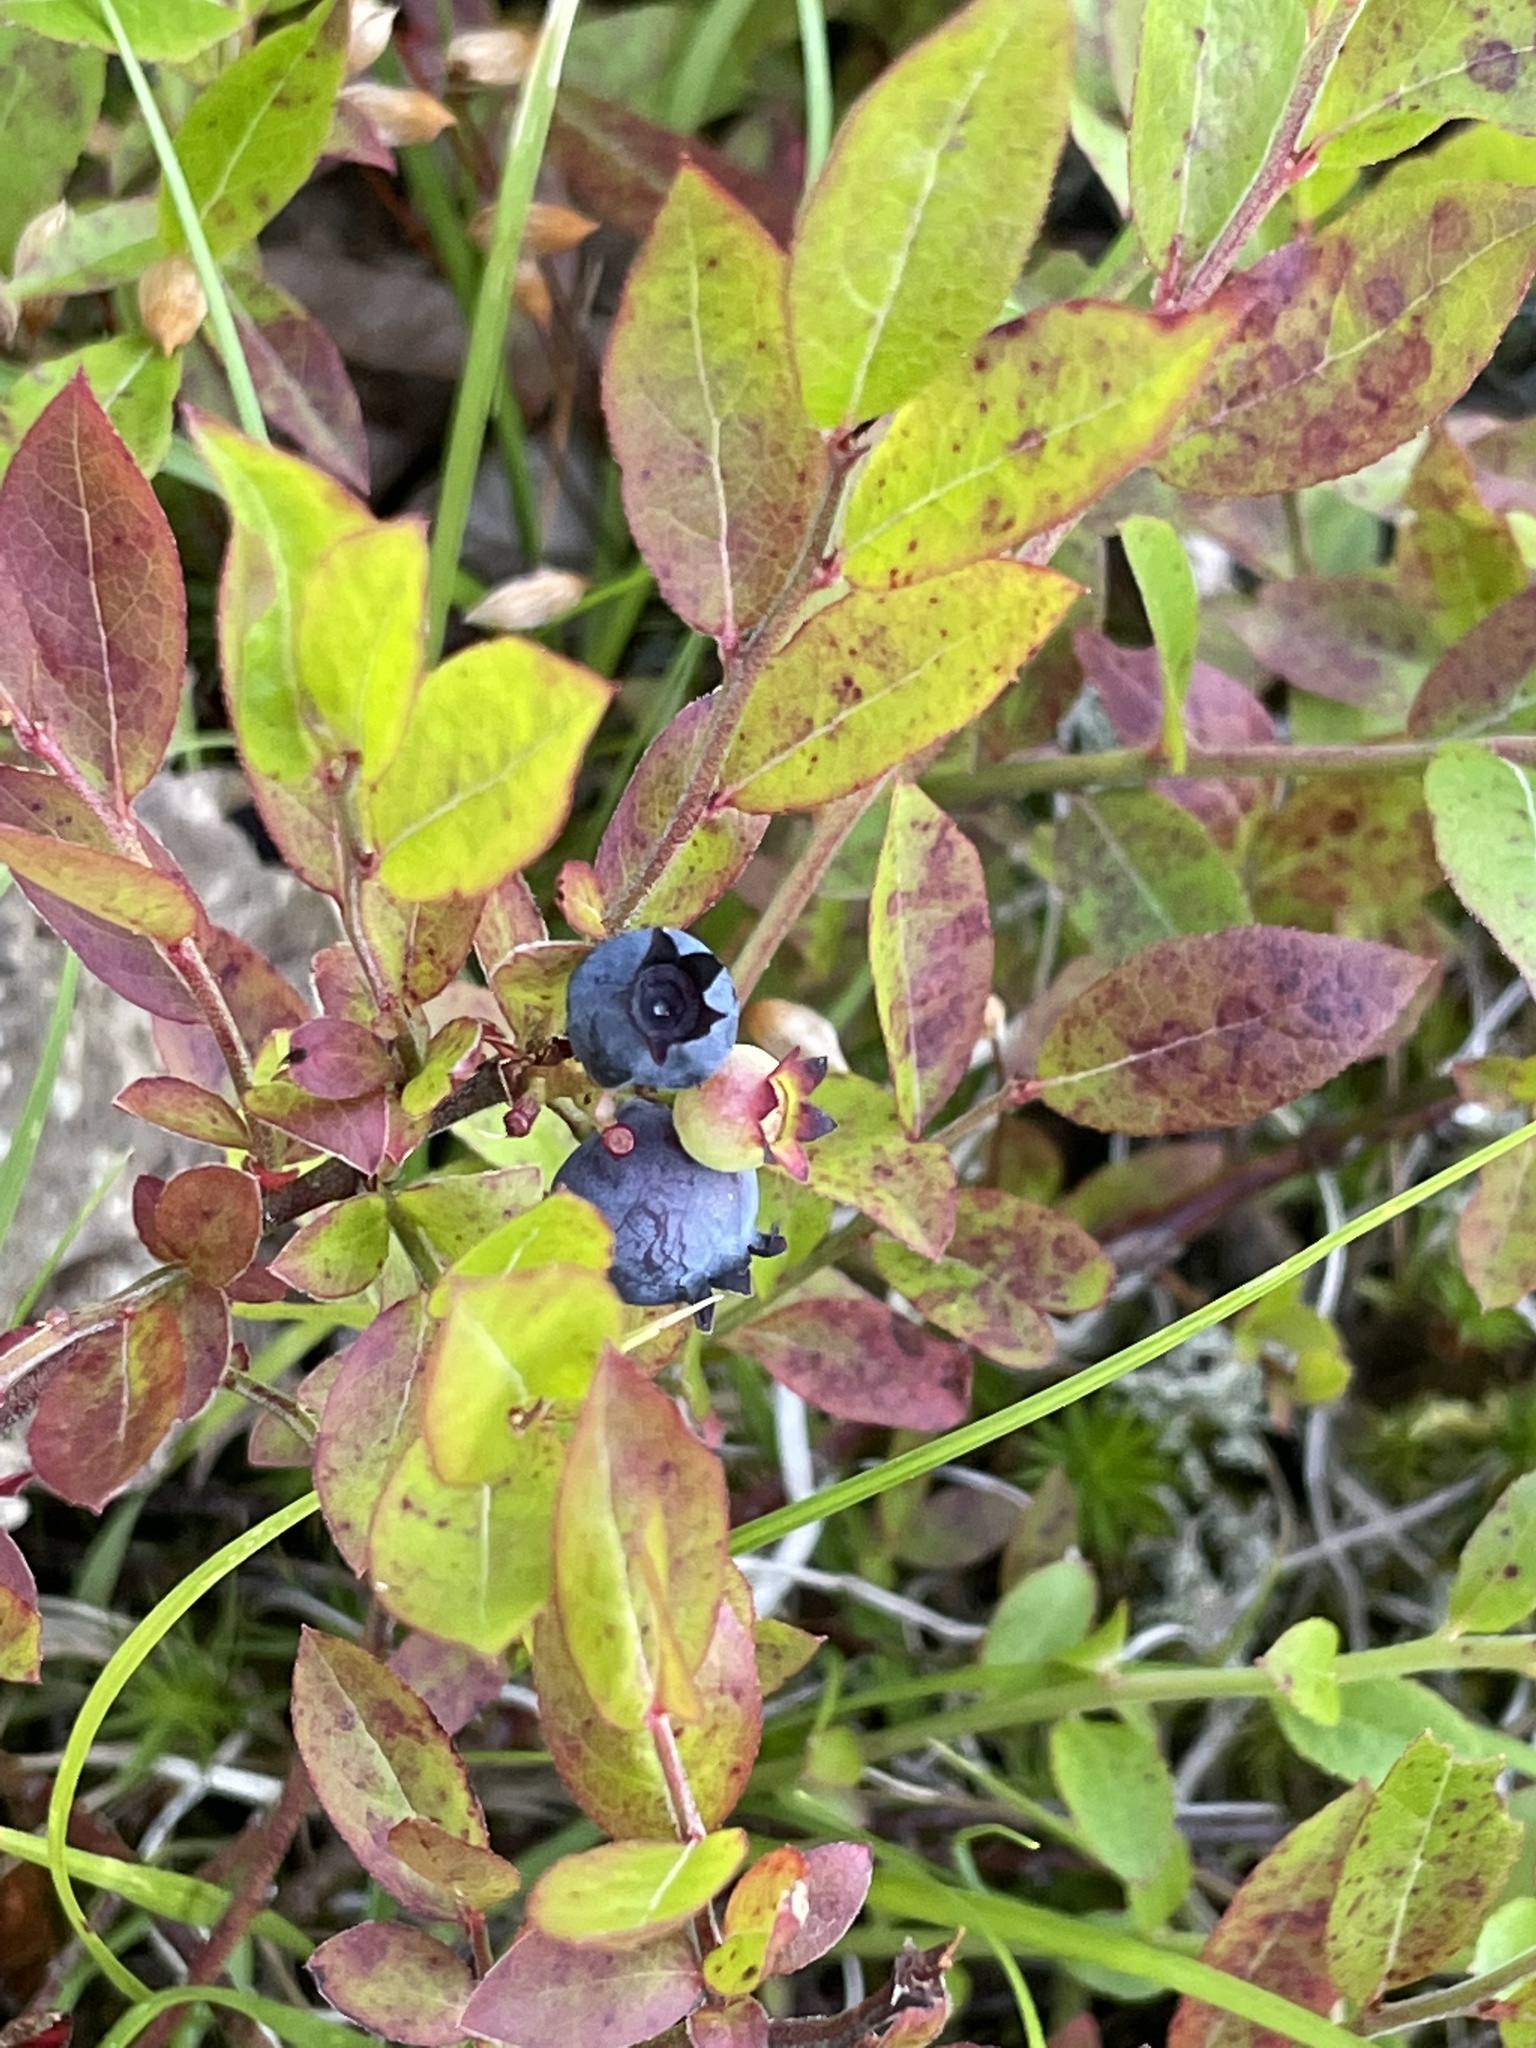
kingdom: Plantae
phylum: Tracheophyta
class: Magnoliopsida
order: Ericales
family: Ericaceae
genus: Vaccinium
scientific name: Vaccinium angustifolium
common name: Early lowbush blueberry
